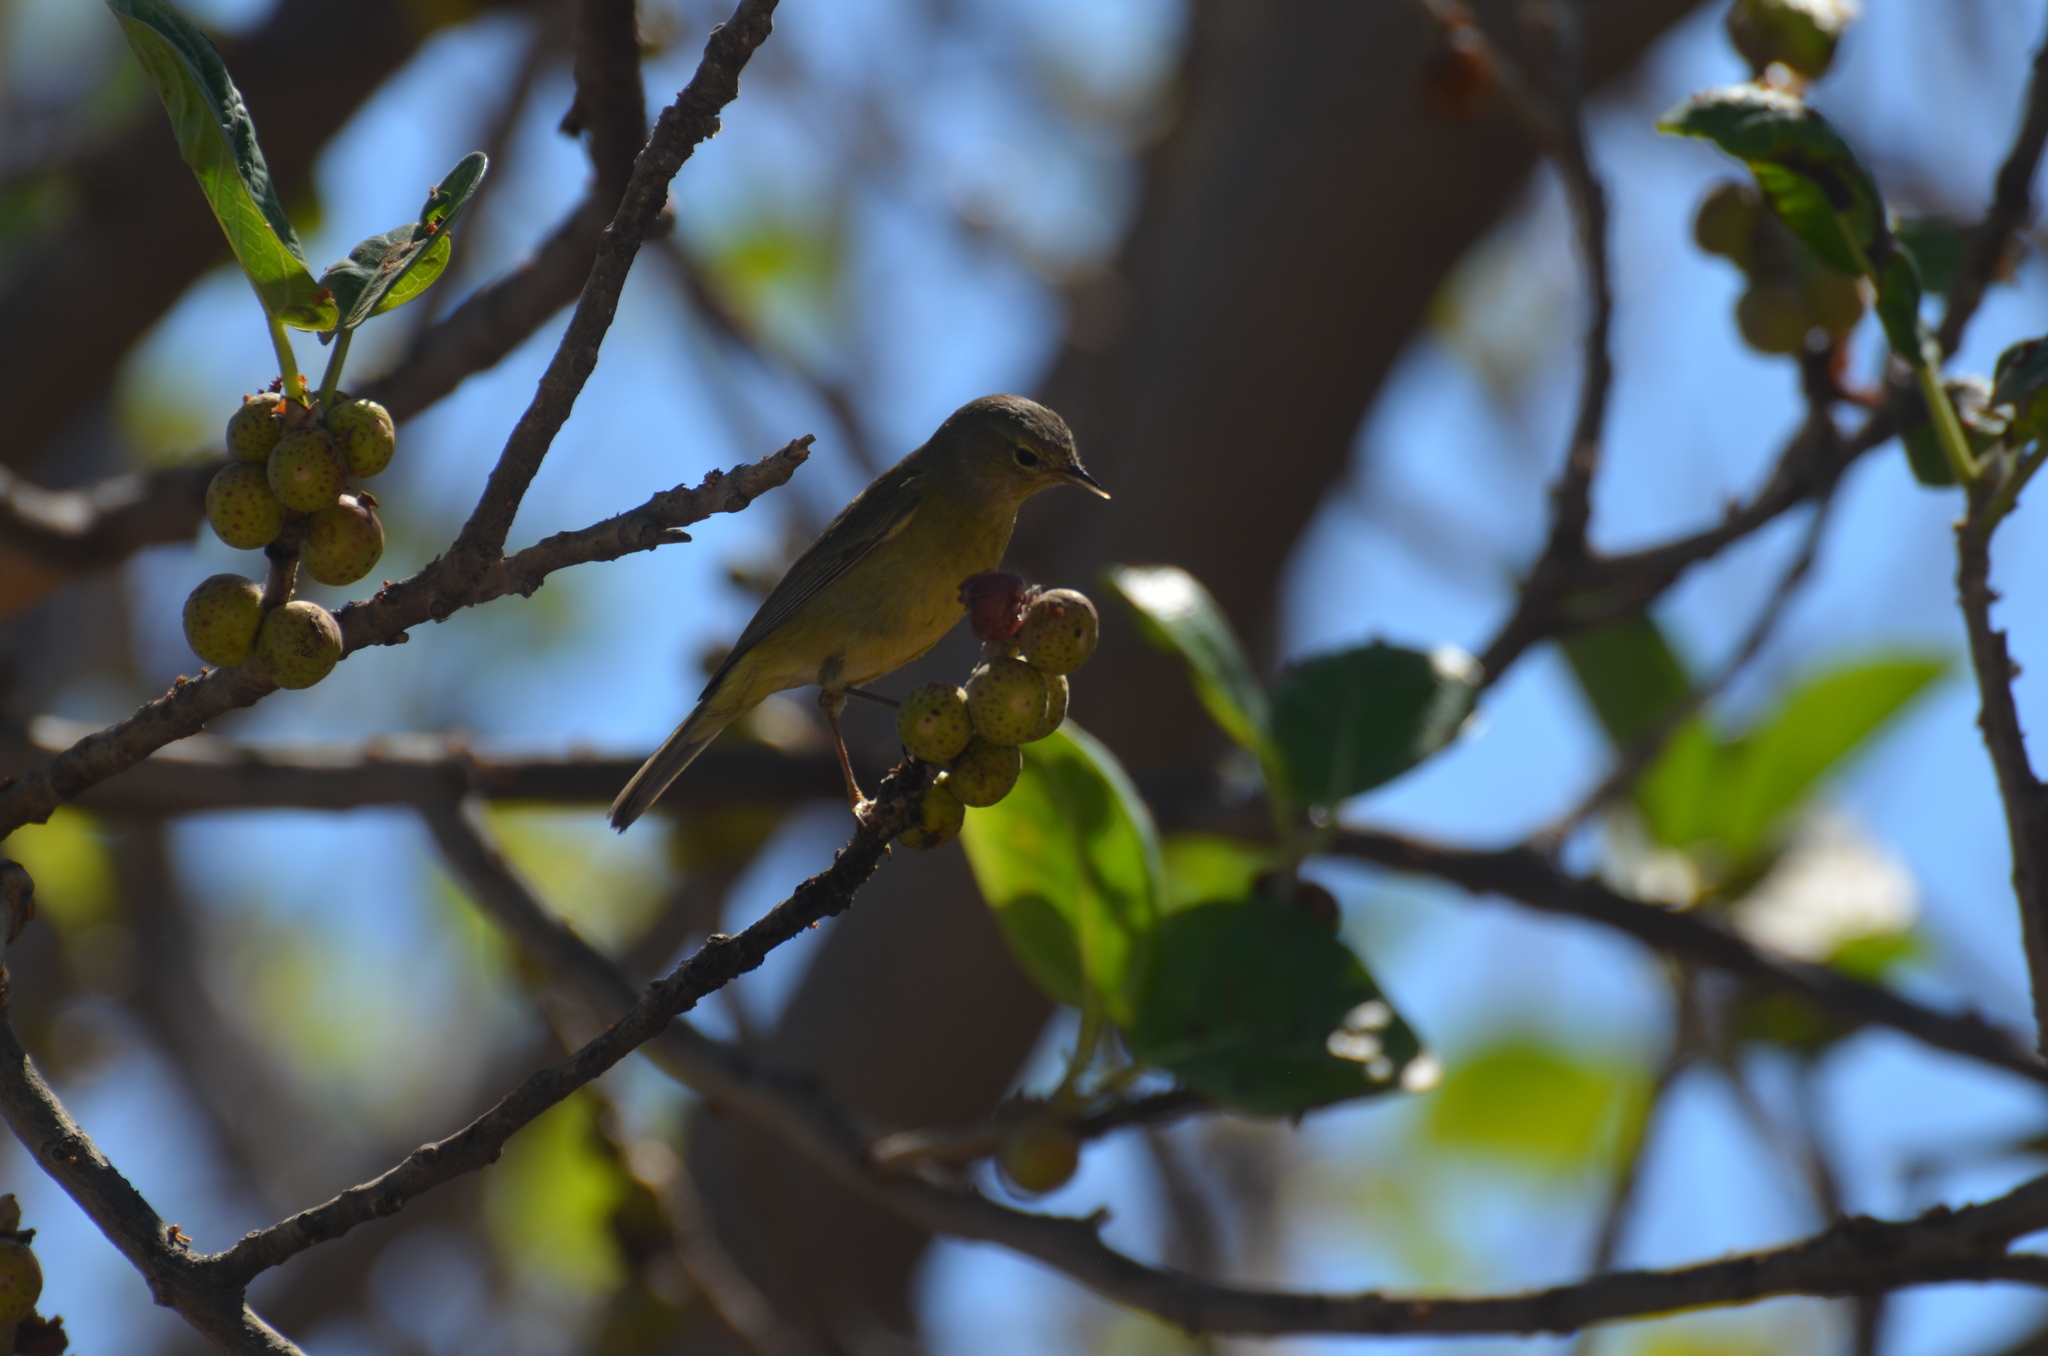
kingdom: Animalia
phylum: Chordata
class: Aves
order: Passeriformes
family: Parulidae
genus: Leiothlypis
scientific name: Leiothlypis celata
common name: Orange-crowned warbler
